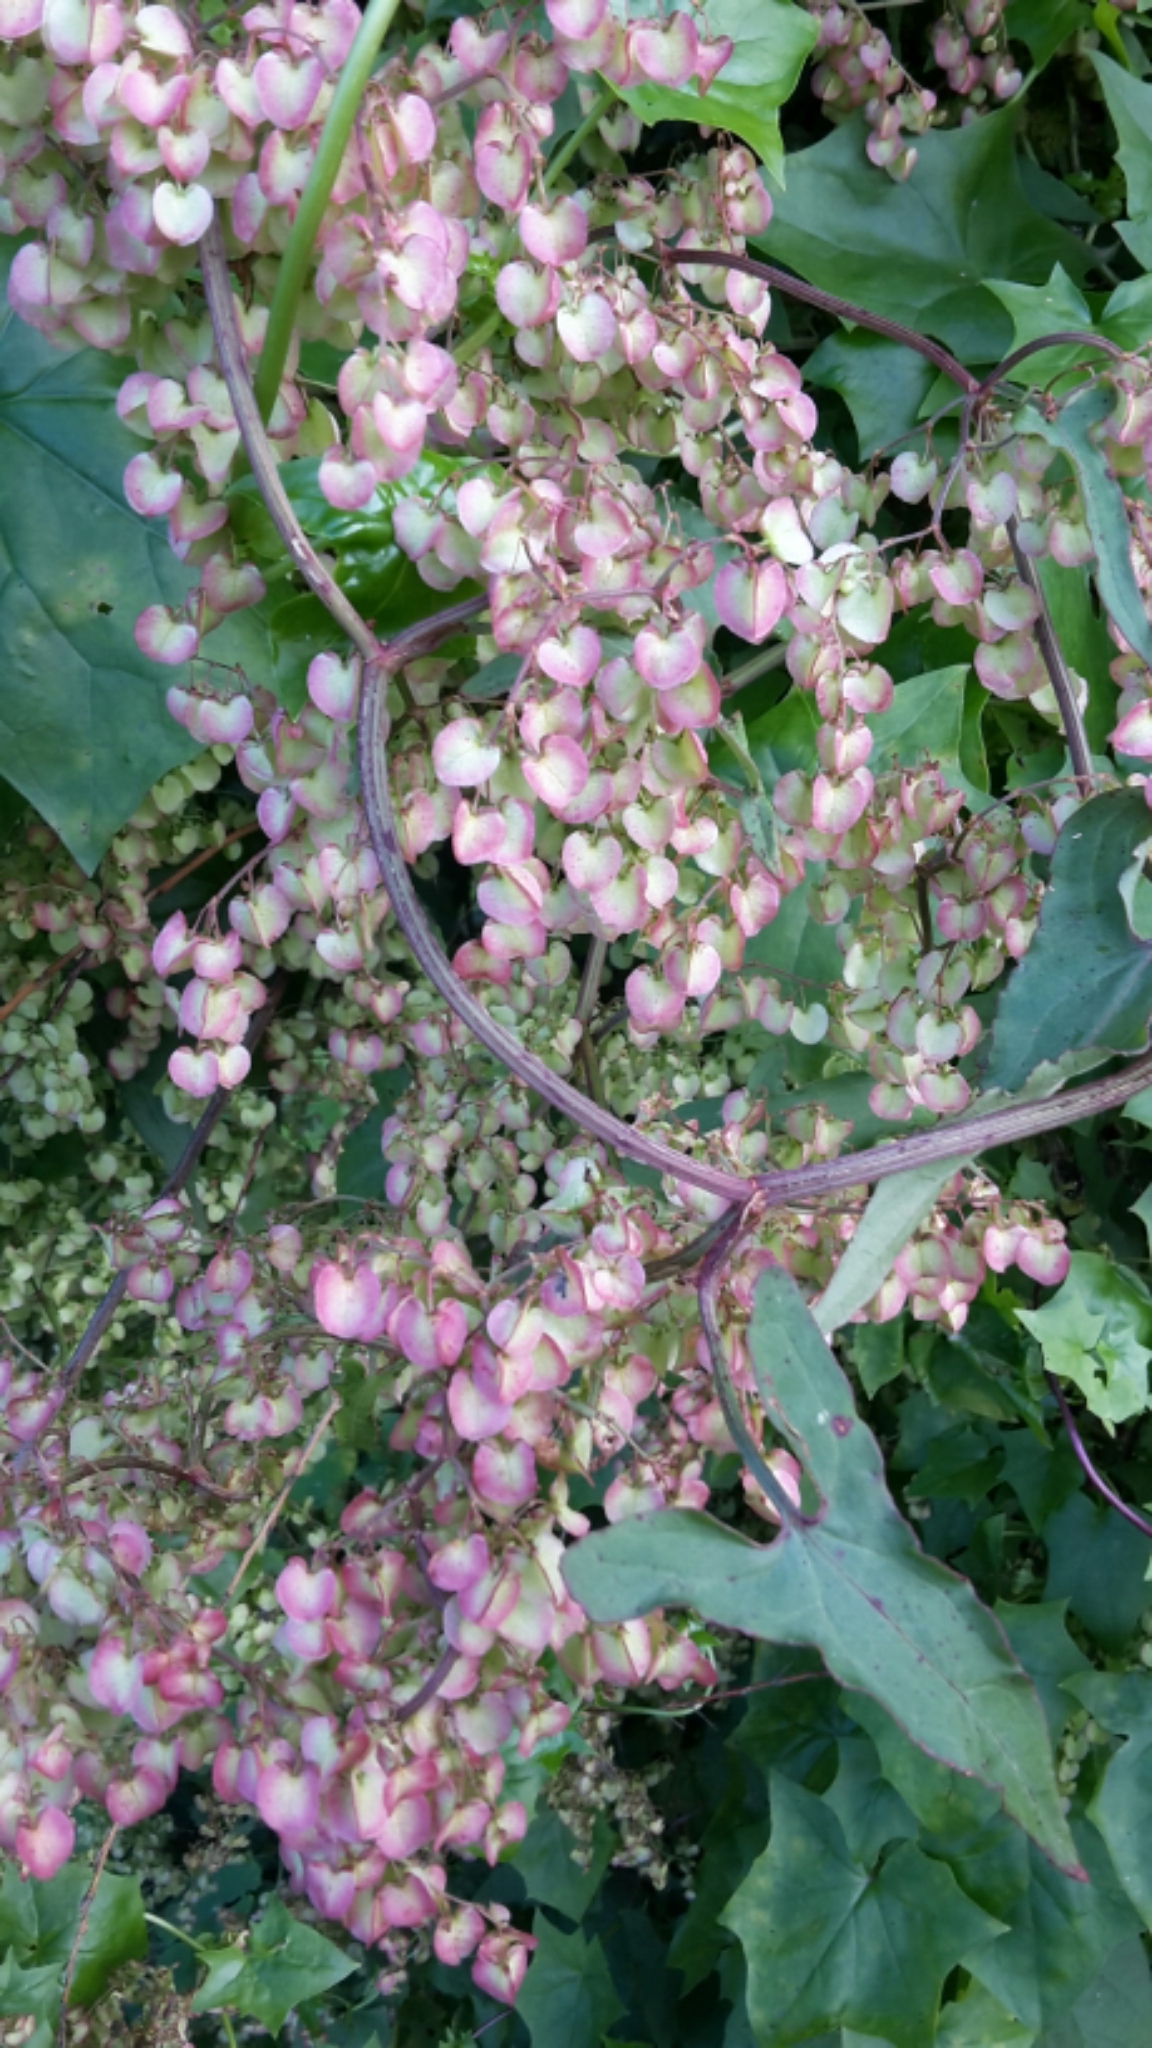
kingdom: Plantae
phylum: Tracheophyta
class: Magnoliopsida
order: Caryophyllales
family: Polygonaceae
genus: Rumex
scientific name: Rumex sagittatus
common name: Climbing dock
